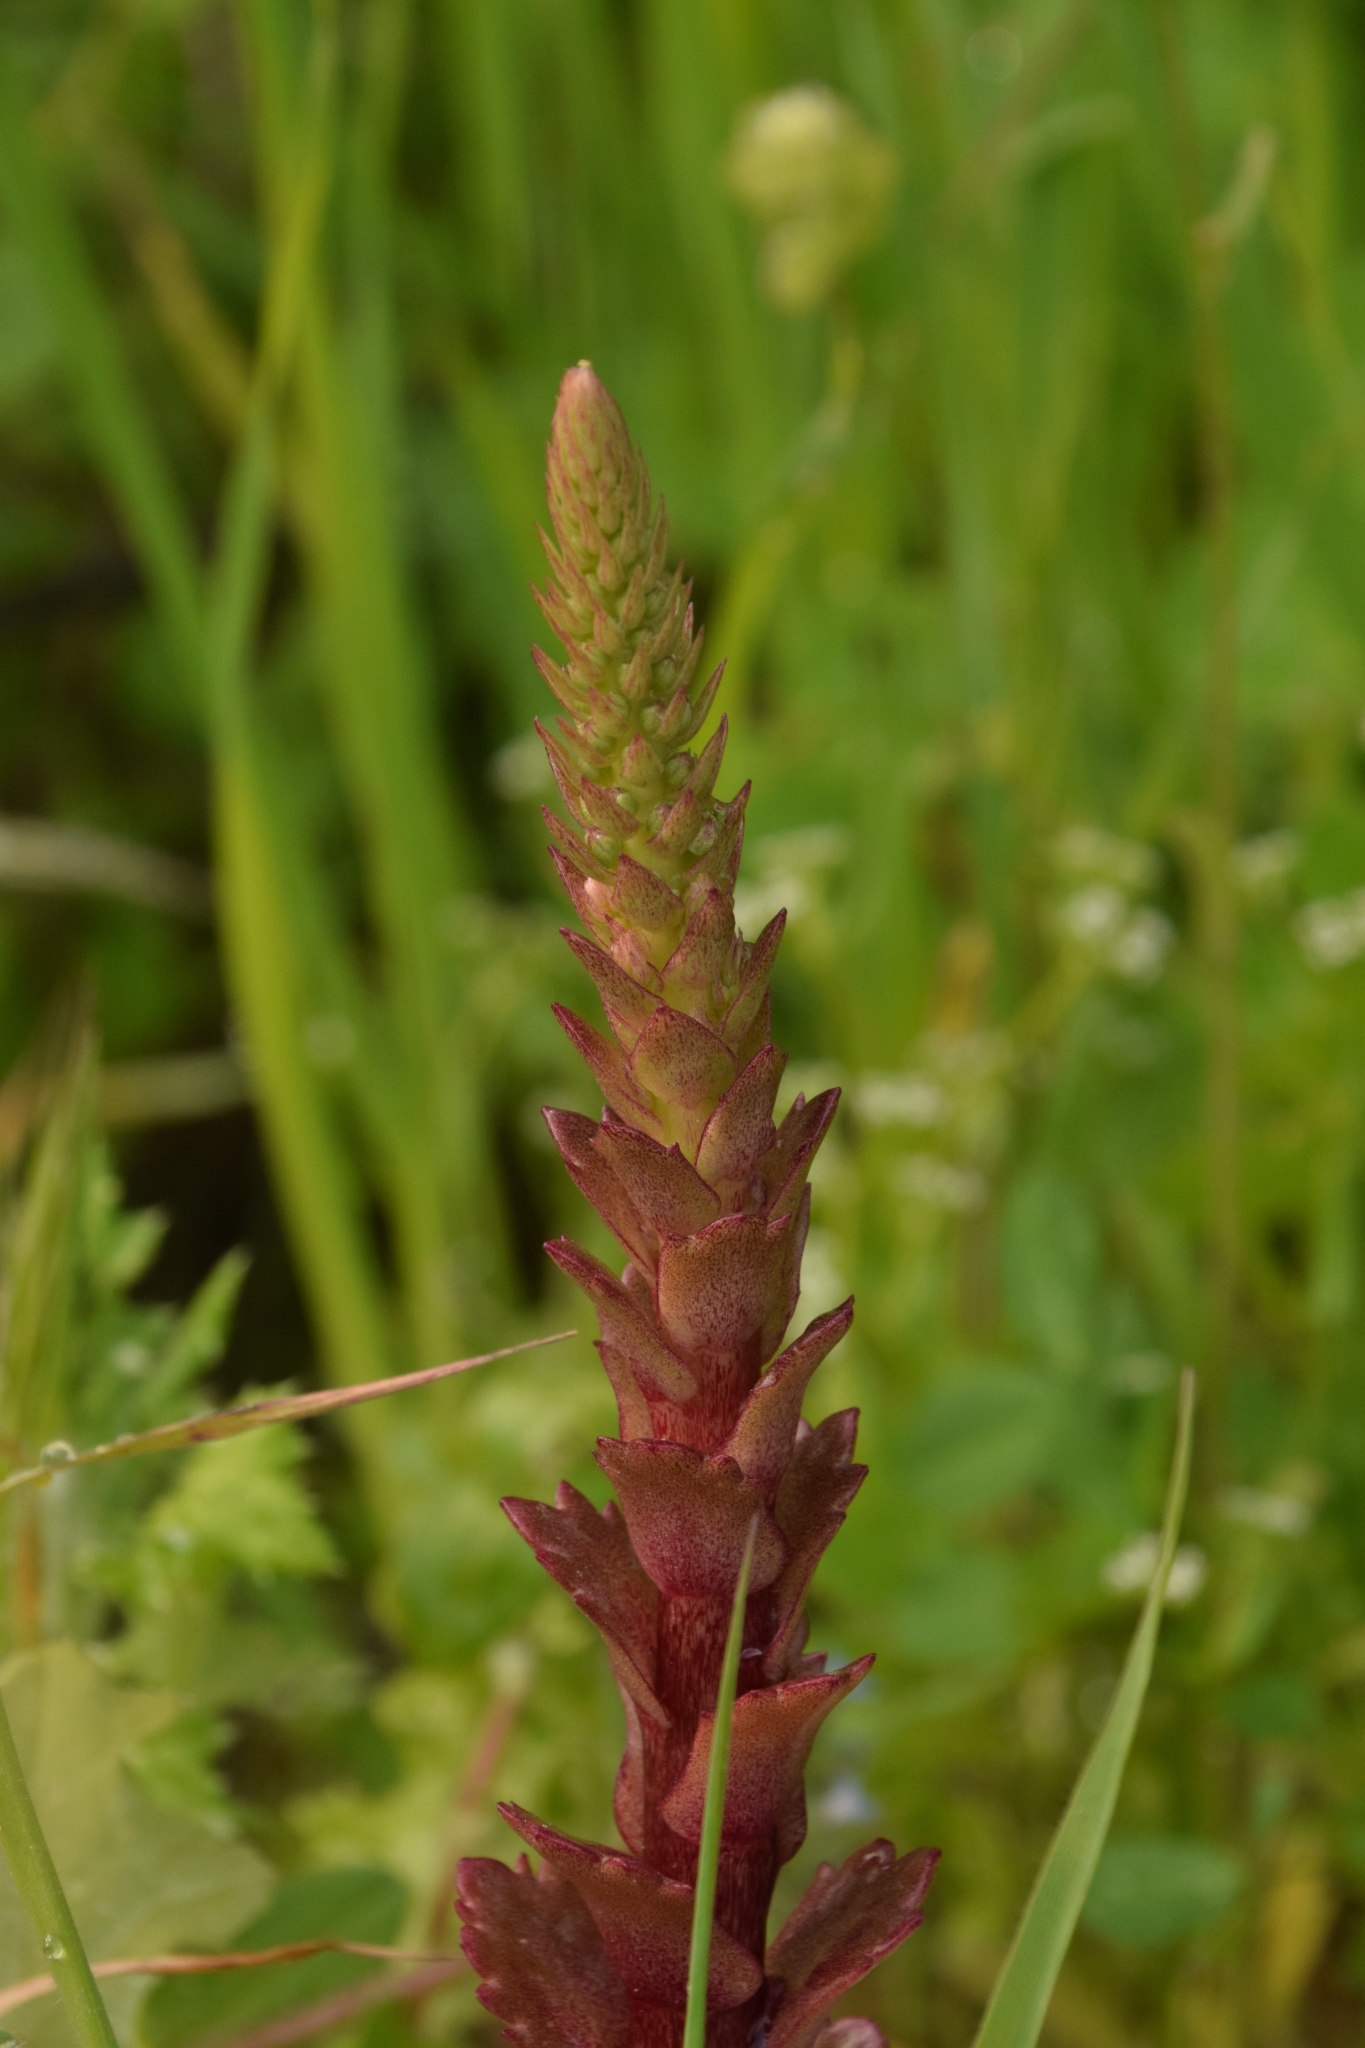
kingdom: Plantae
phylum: Tracheophyta
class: Magnoliopsida
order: Saxifragales
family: Crassulaceae
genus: Umbilicus
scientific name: Umbilicus horizontalis
